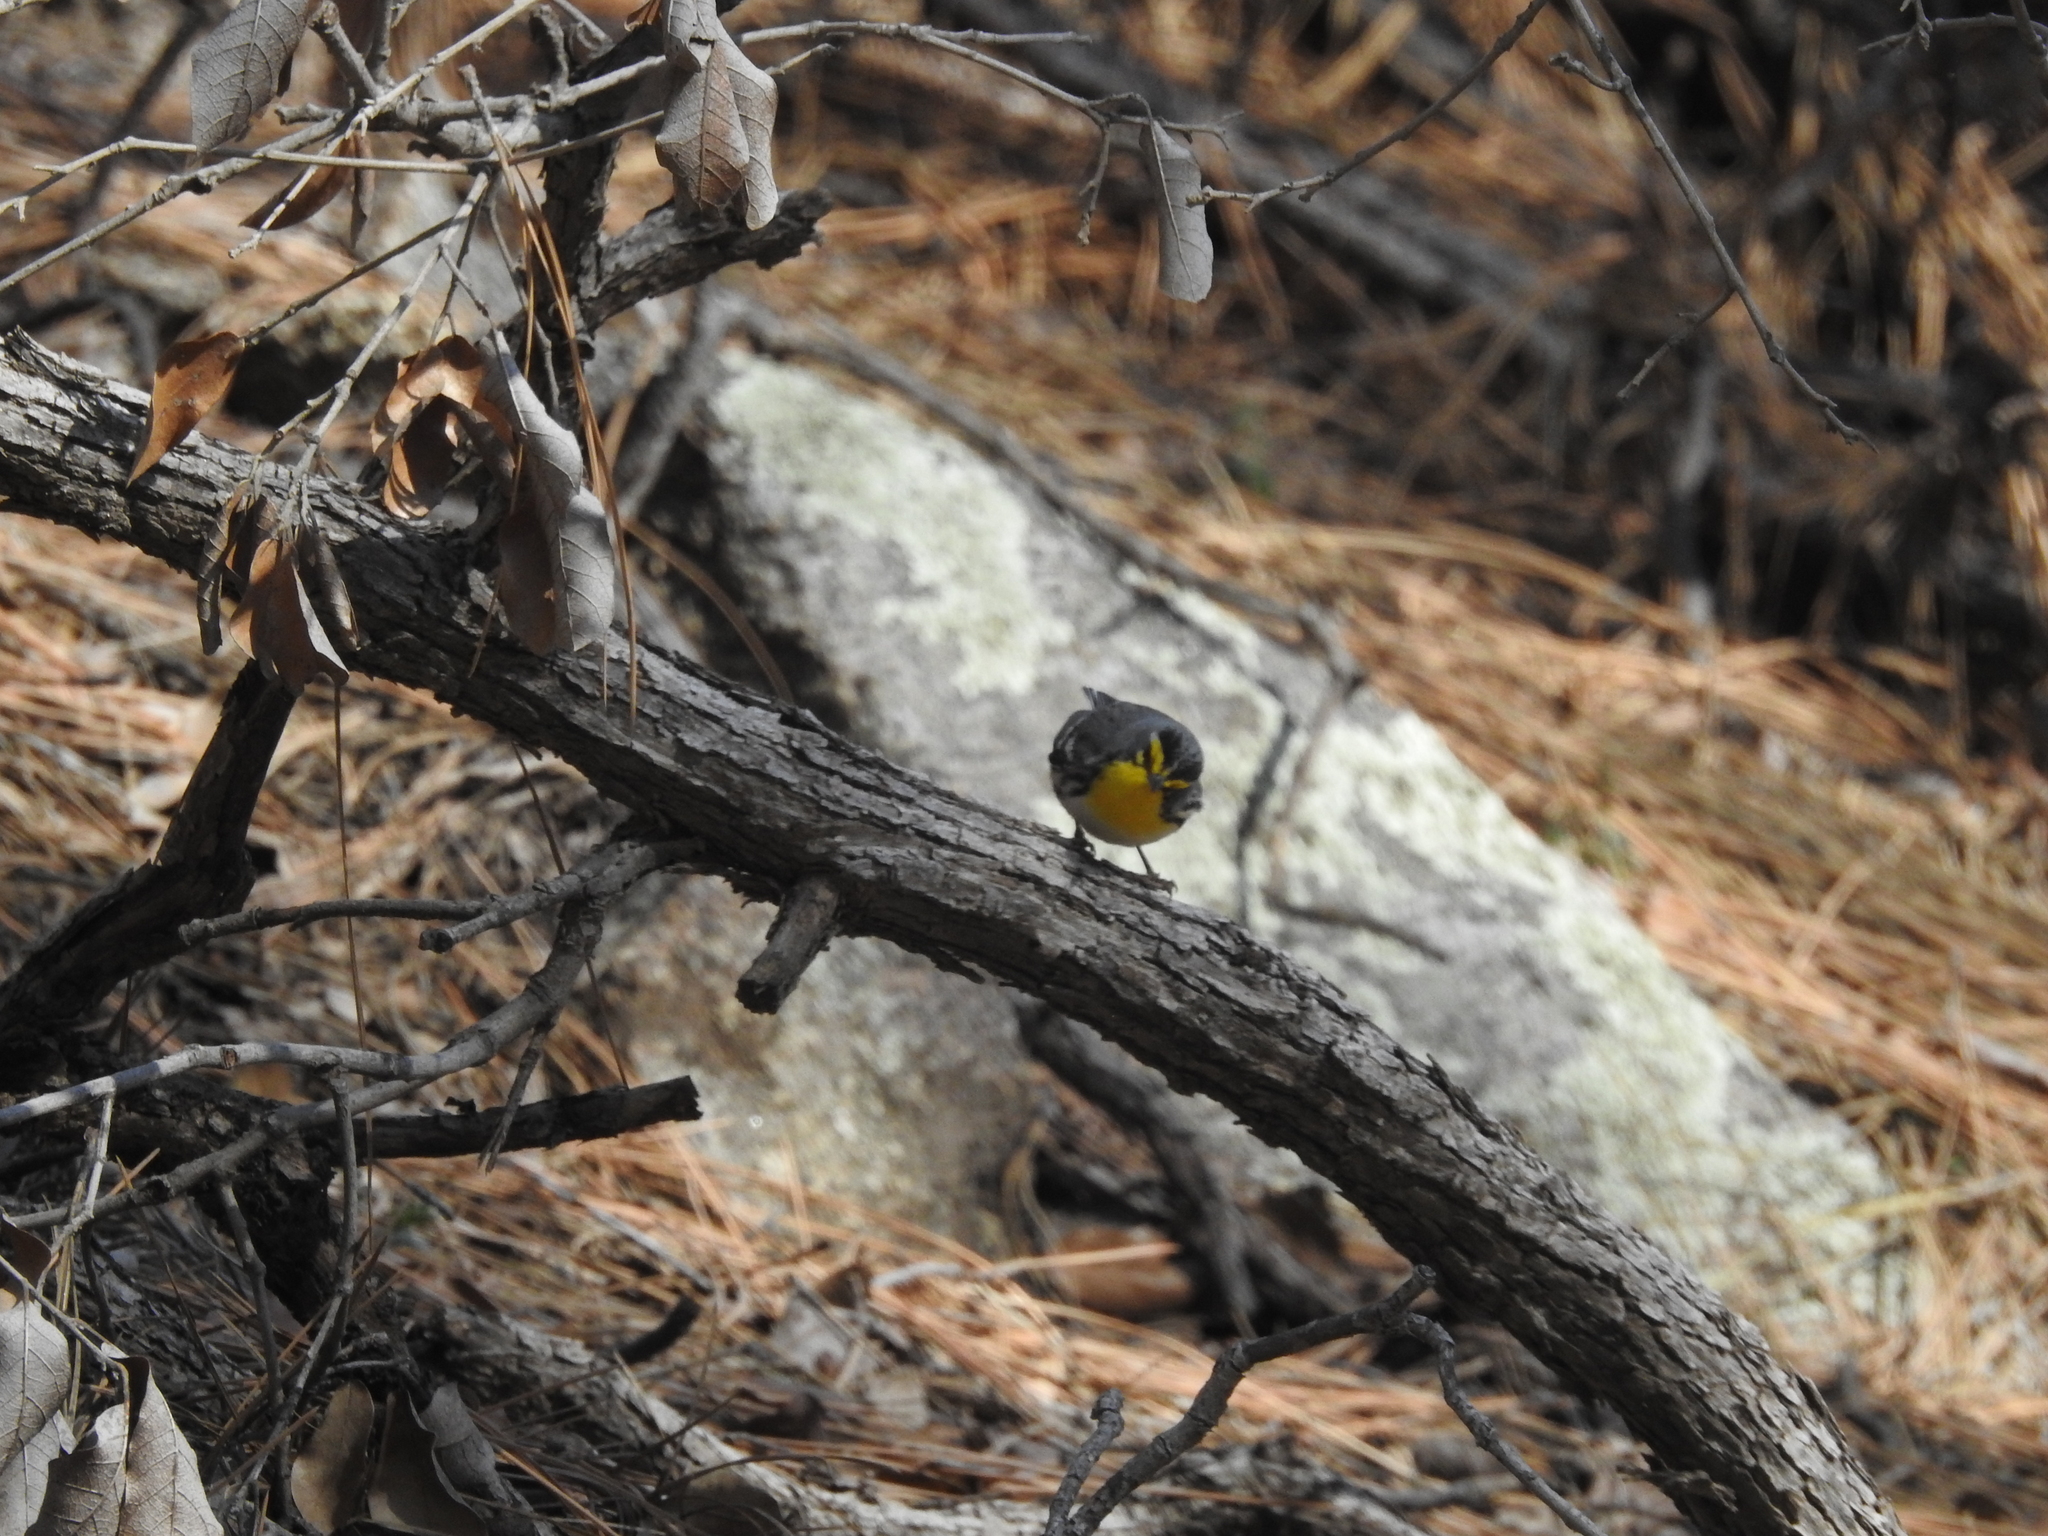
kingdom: Animalia
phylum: Chordata
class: Aves
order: Passeriformes
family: Parulidae
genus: Setophaga
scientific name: Setophaga graciae
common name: Grace's warbler
